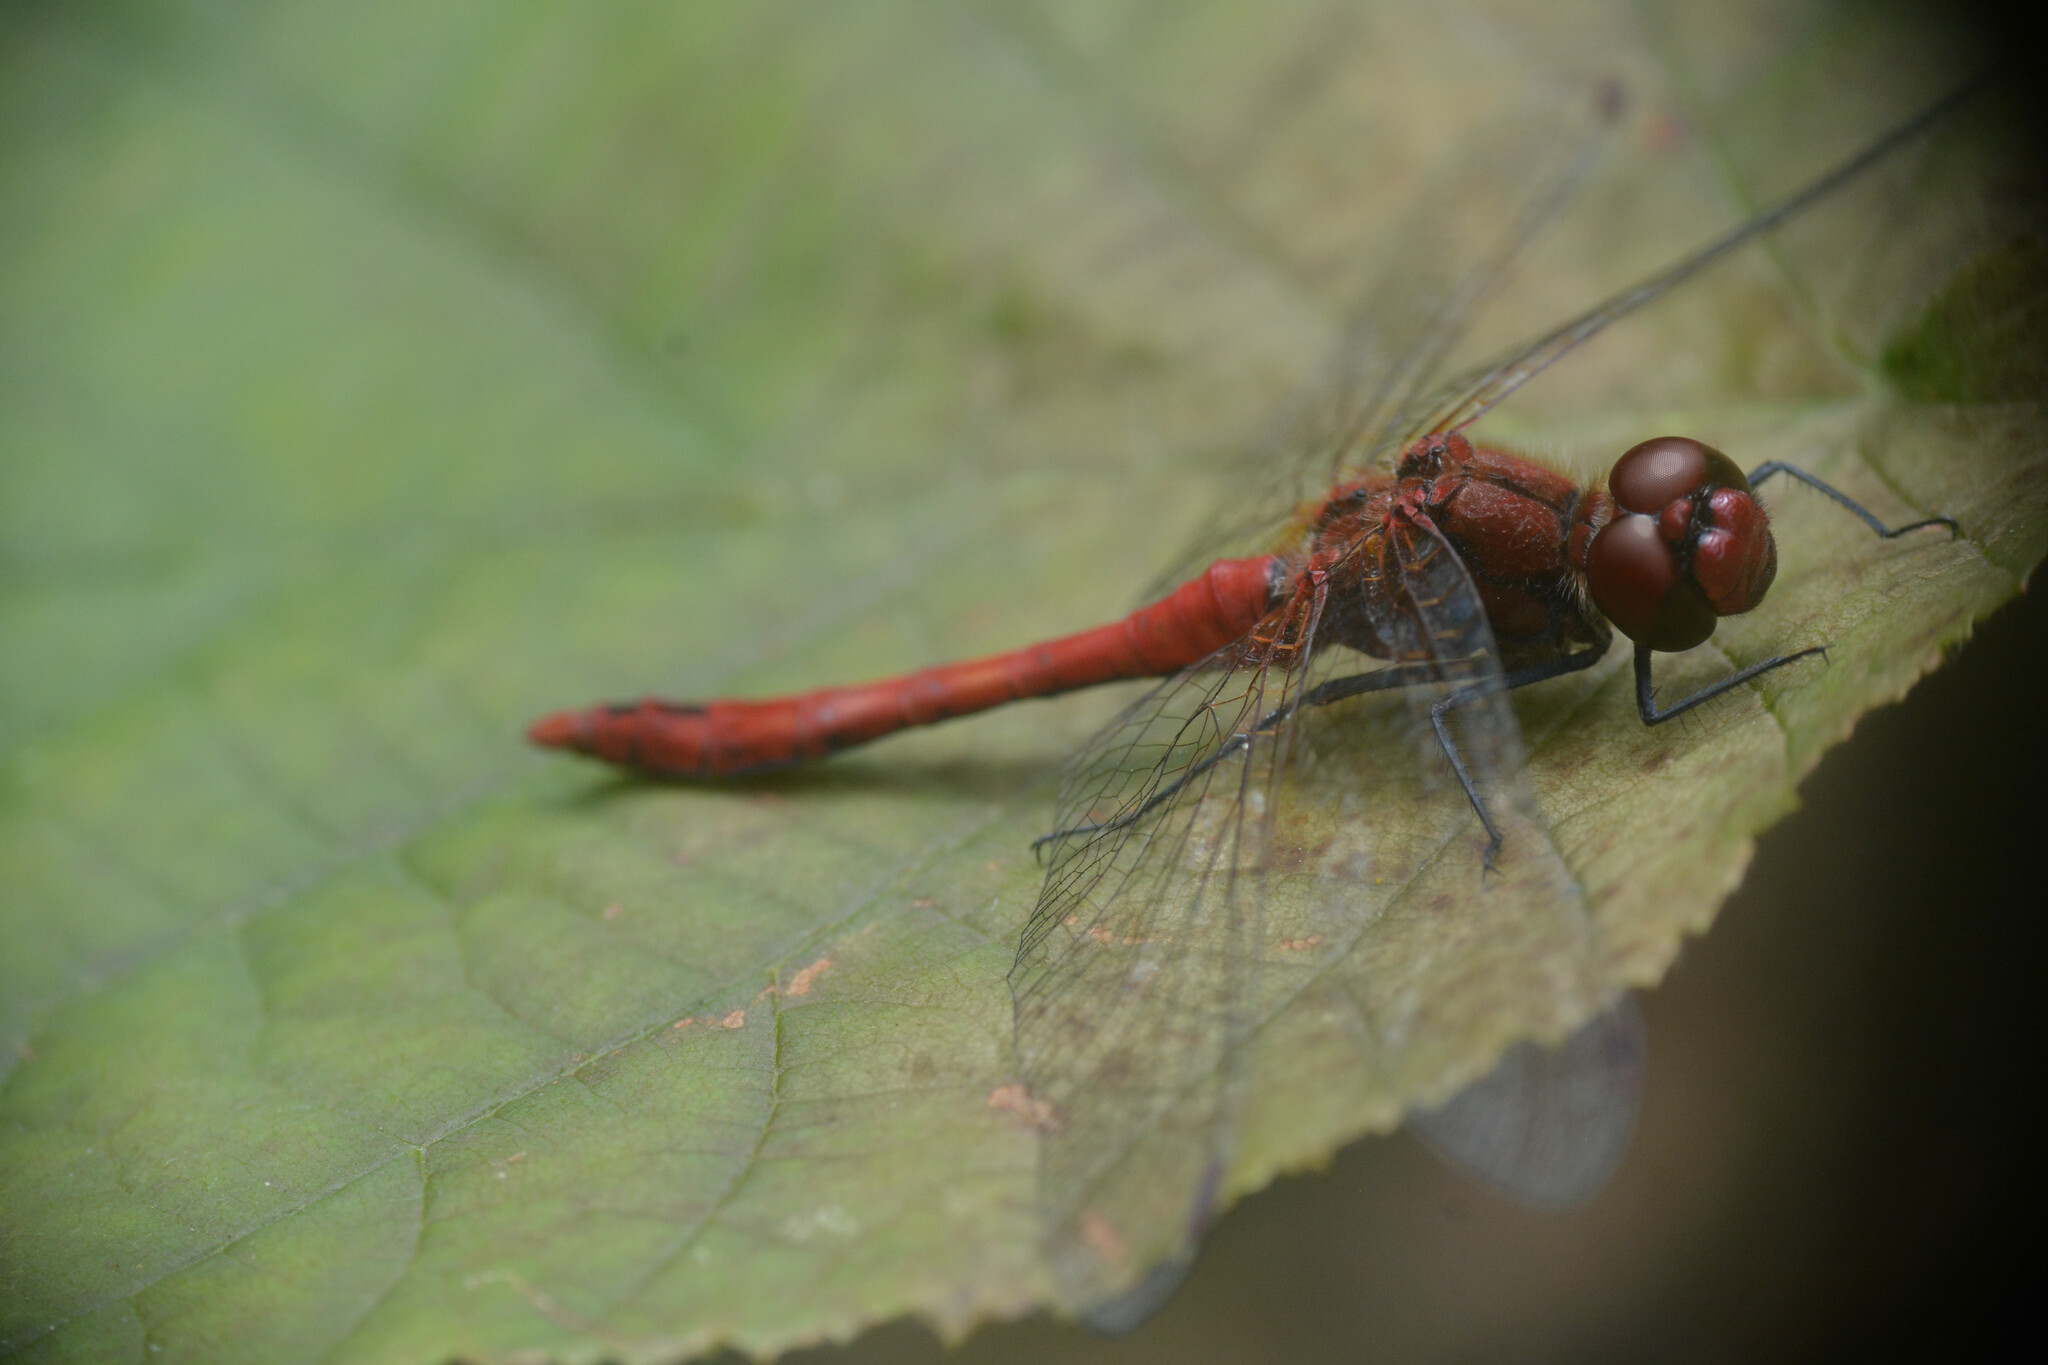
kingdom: Animalia
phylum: Arthropoda
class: Insecta
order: Odonata
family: Libellulidae
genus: Sympetrum
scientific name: Sympetrum sanguineum
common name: Ruddy darter
